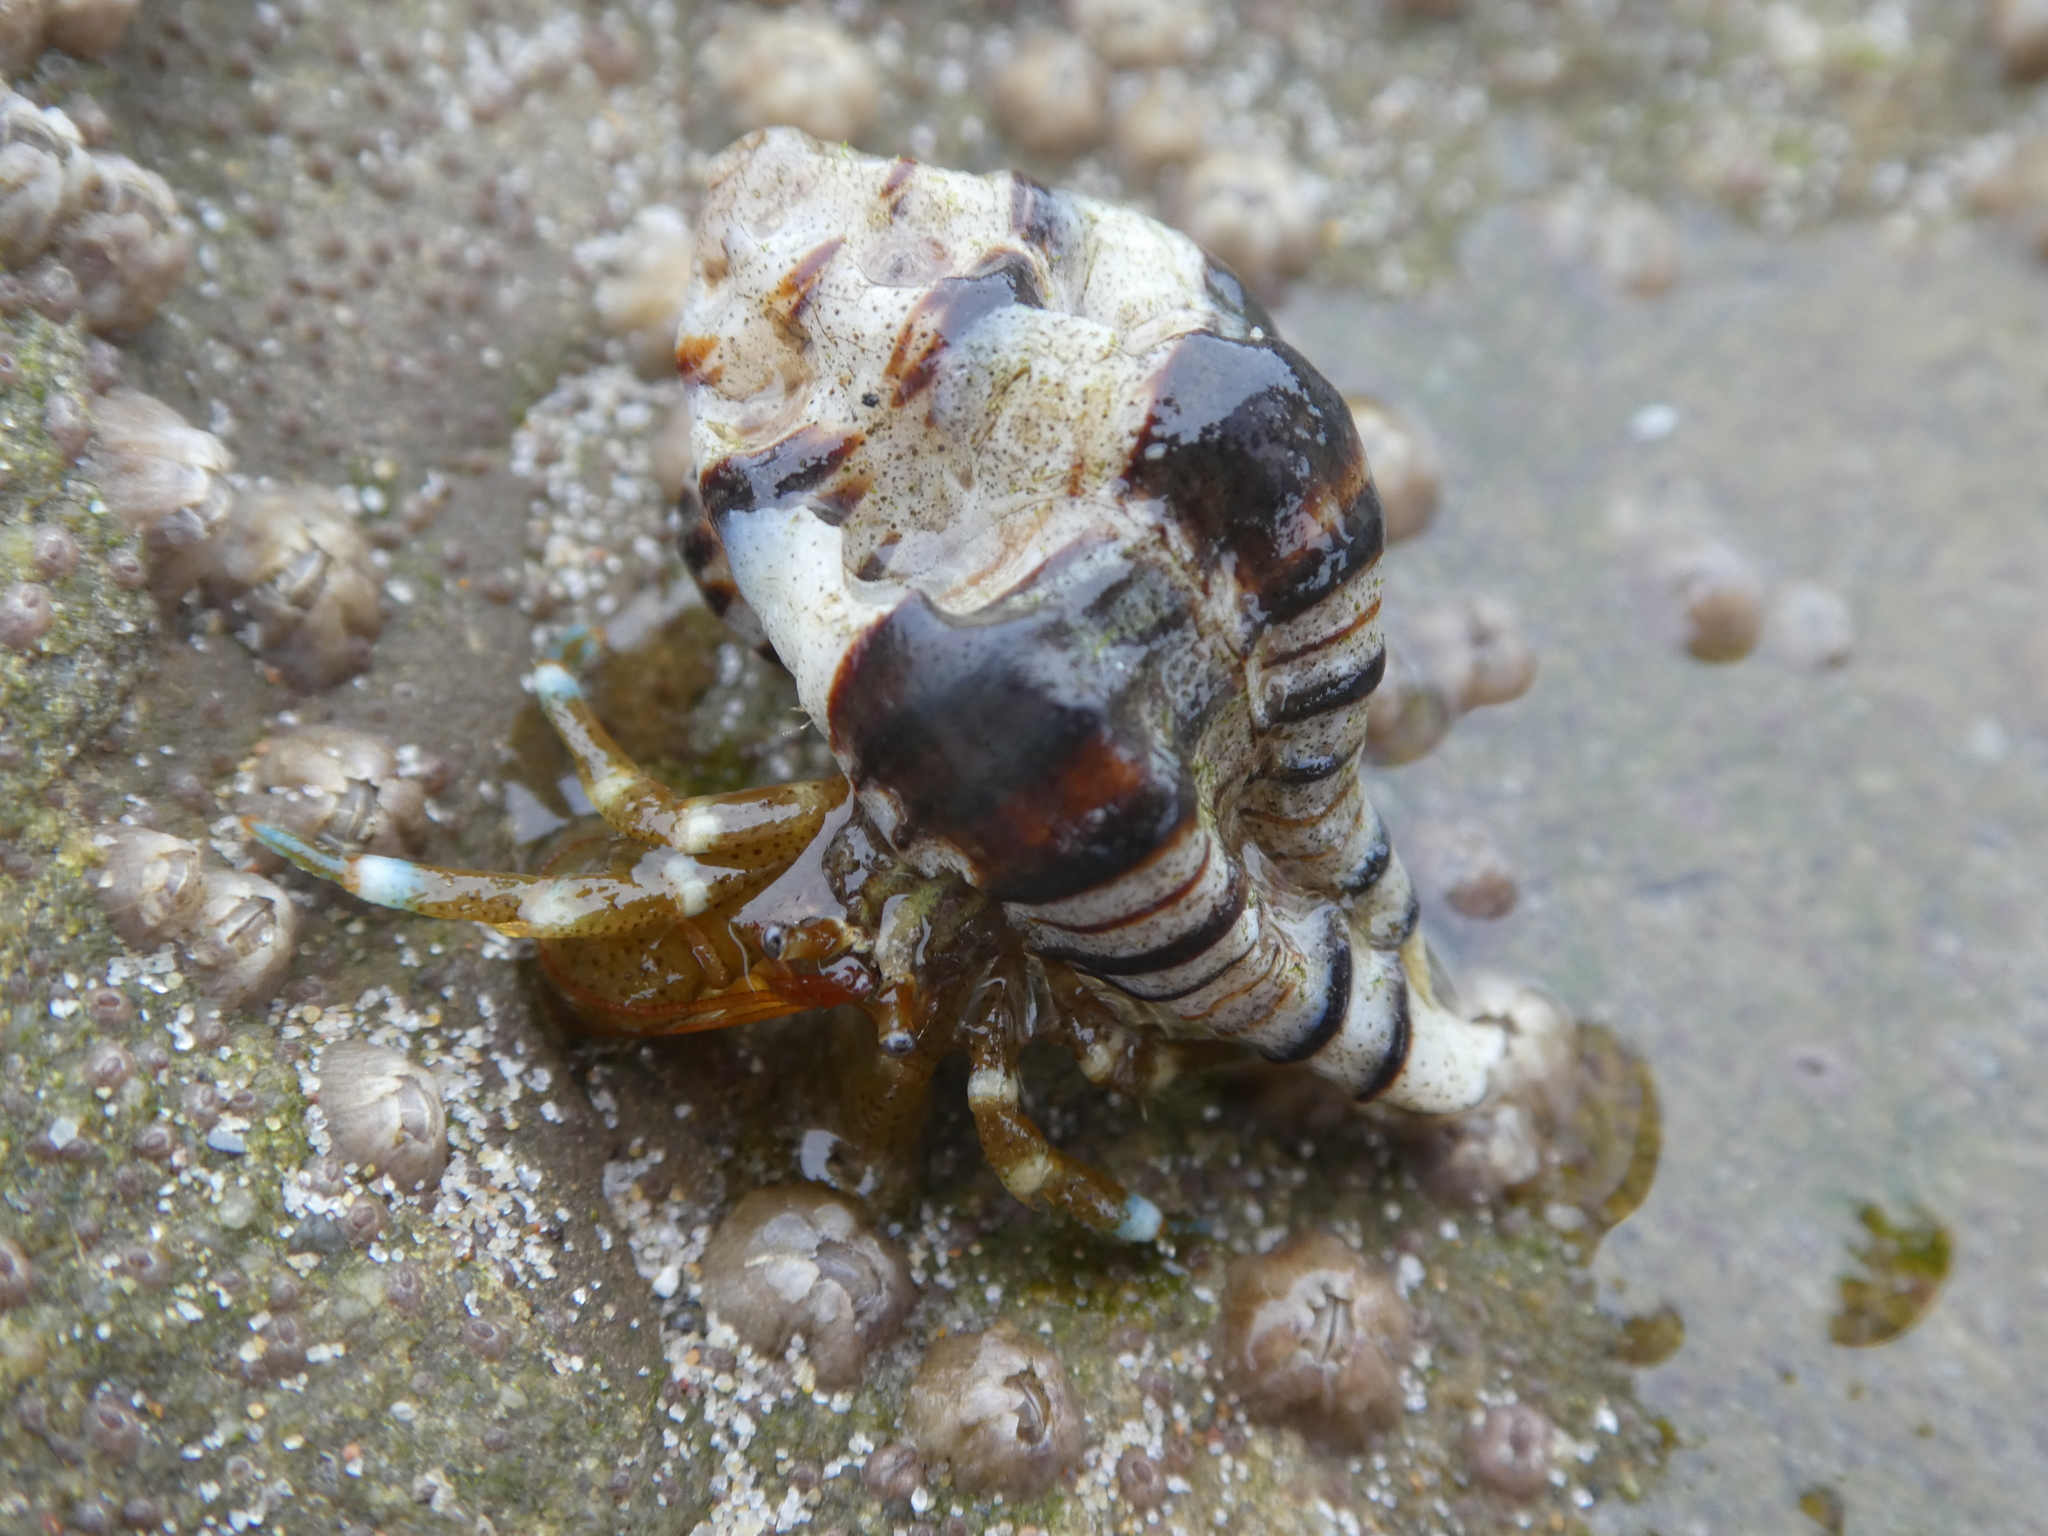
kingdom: Animalia
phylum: Arthropoda
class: Malacostraca
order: Decapoda
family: Paguridae
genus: Pagurus
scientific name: Pagurus samuelis
